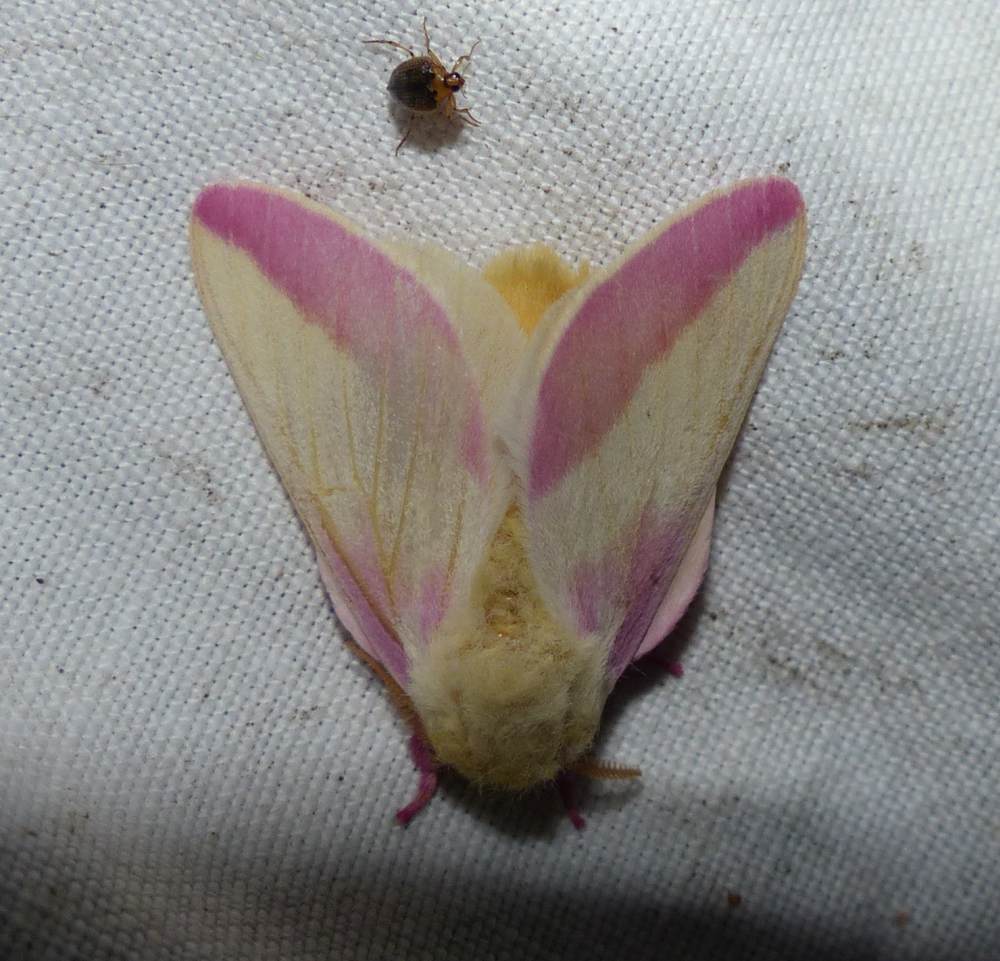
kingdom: Animalia
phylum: Arthropoda
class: Insecta
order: Lepidoptera
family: Saturniidae
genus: Dryocampa
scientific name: Dryocampa rubicunda
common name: Rosy maple moth
